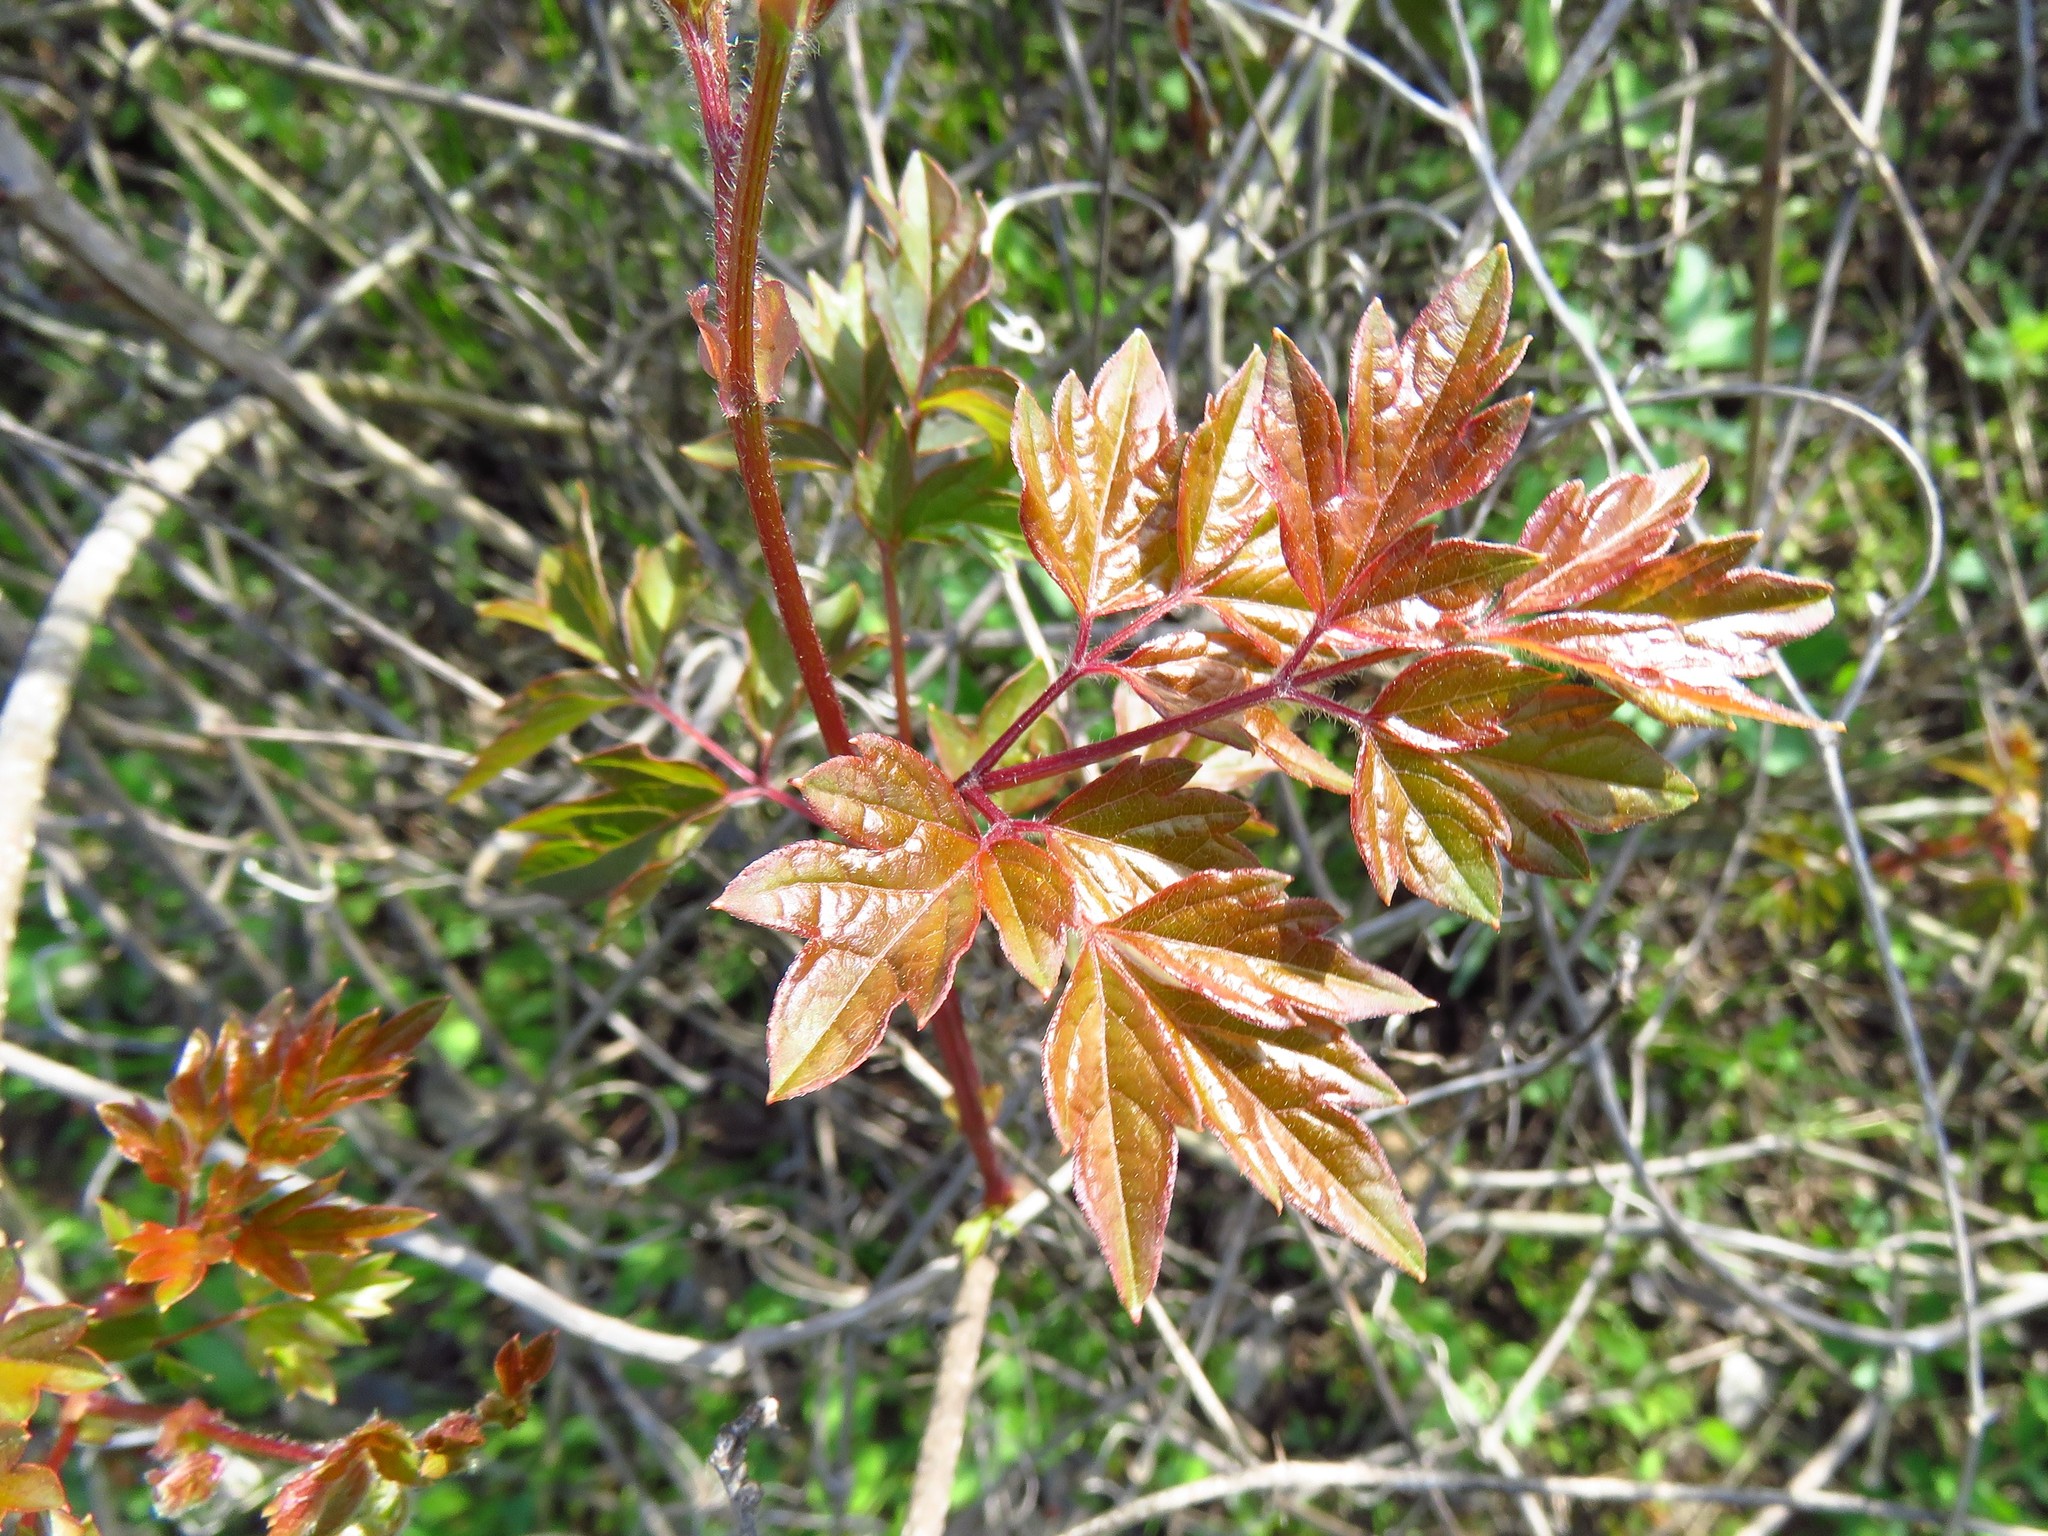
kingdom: Plantae
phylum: Tracheophyta
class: Magnoliopsida
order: Vitales
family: Vitaceae
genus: Nekemias
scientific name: Nekemias arborea
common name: Peppervine
